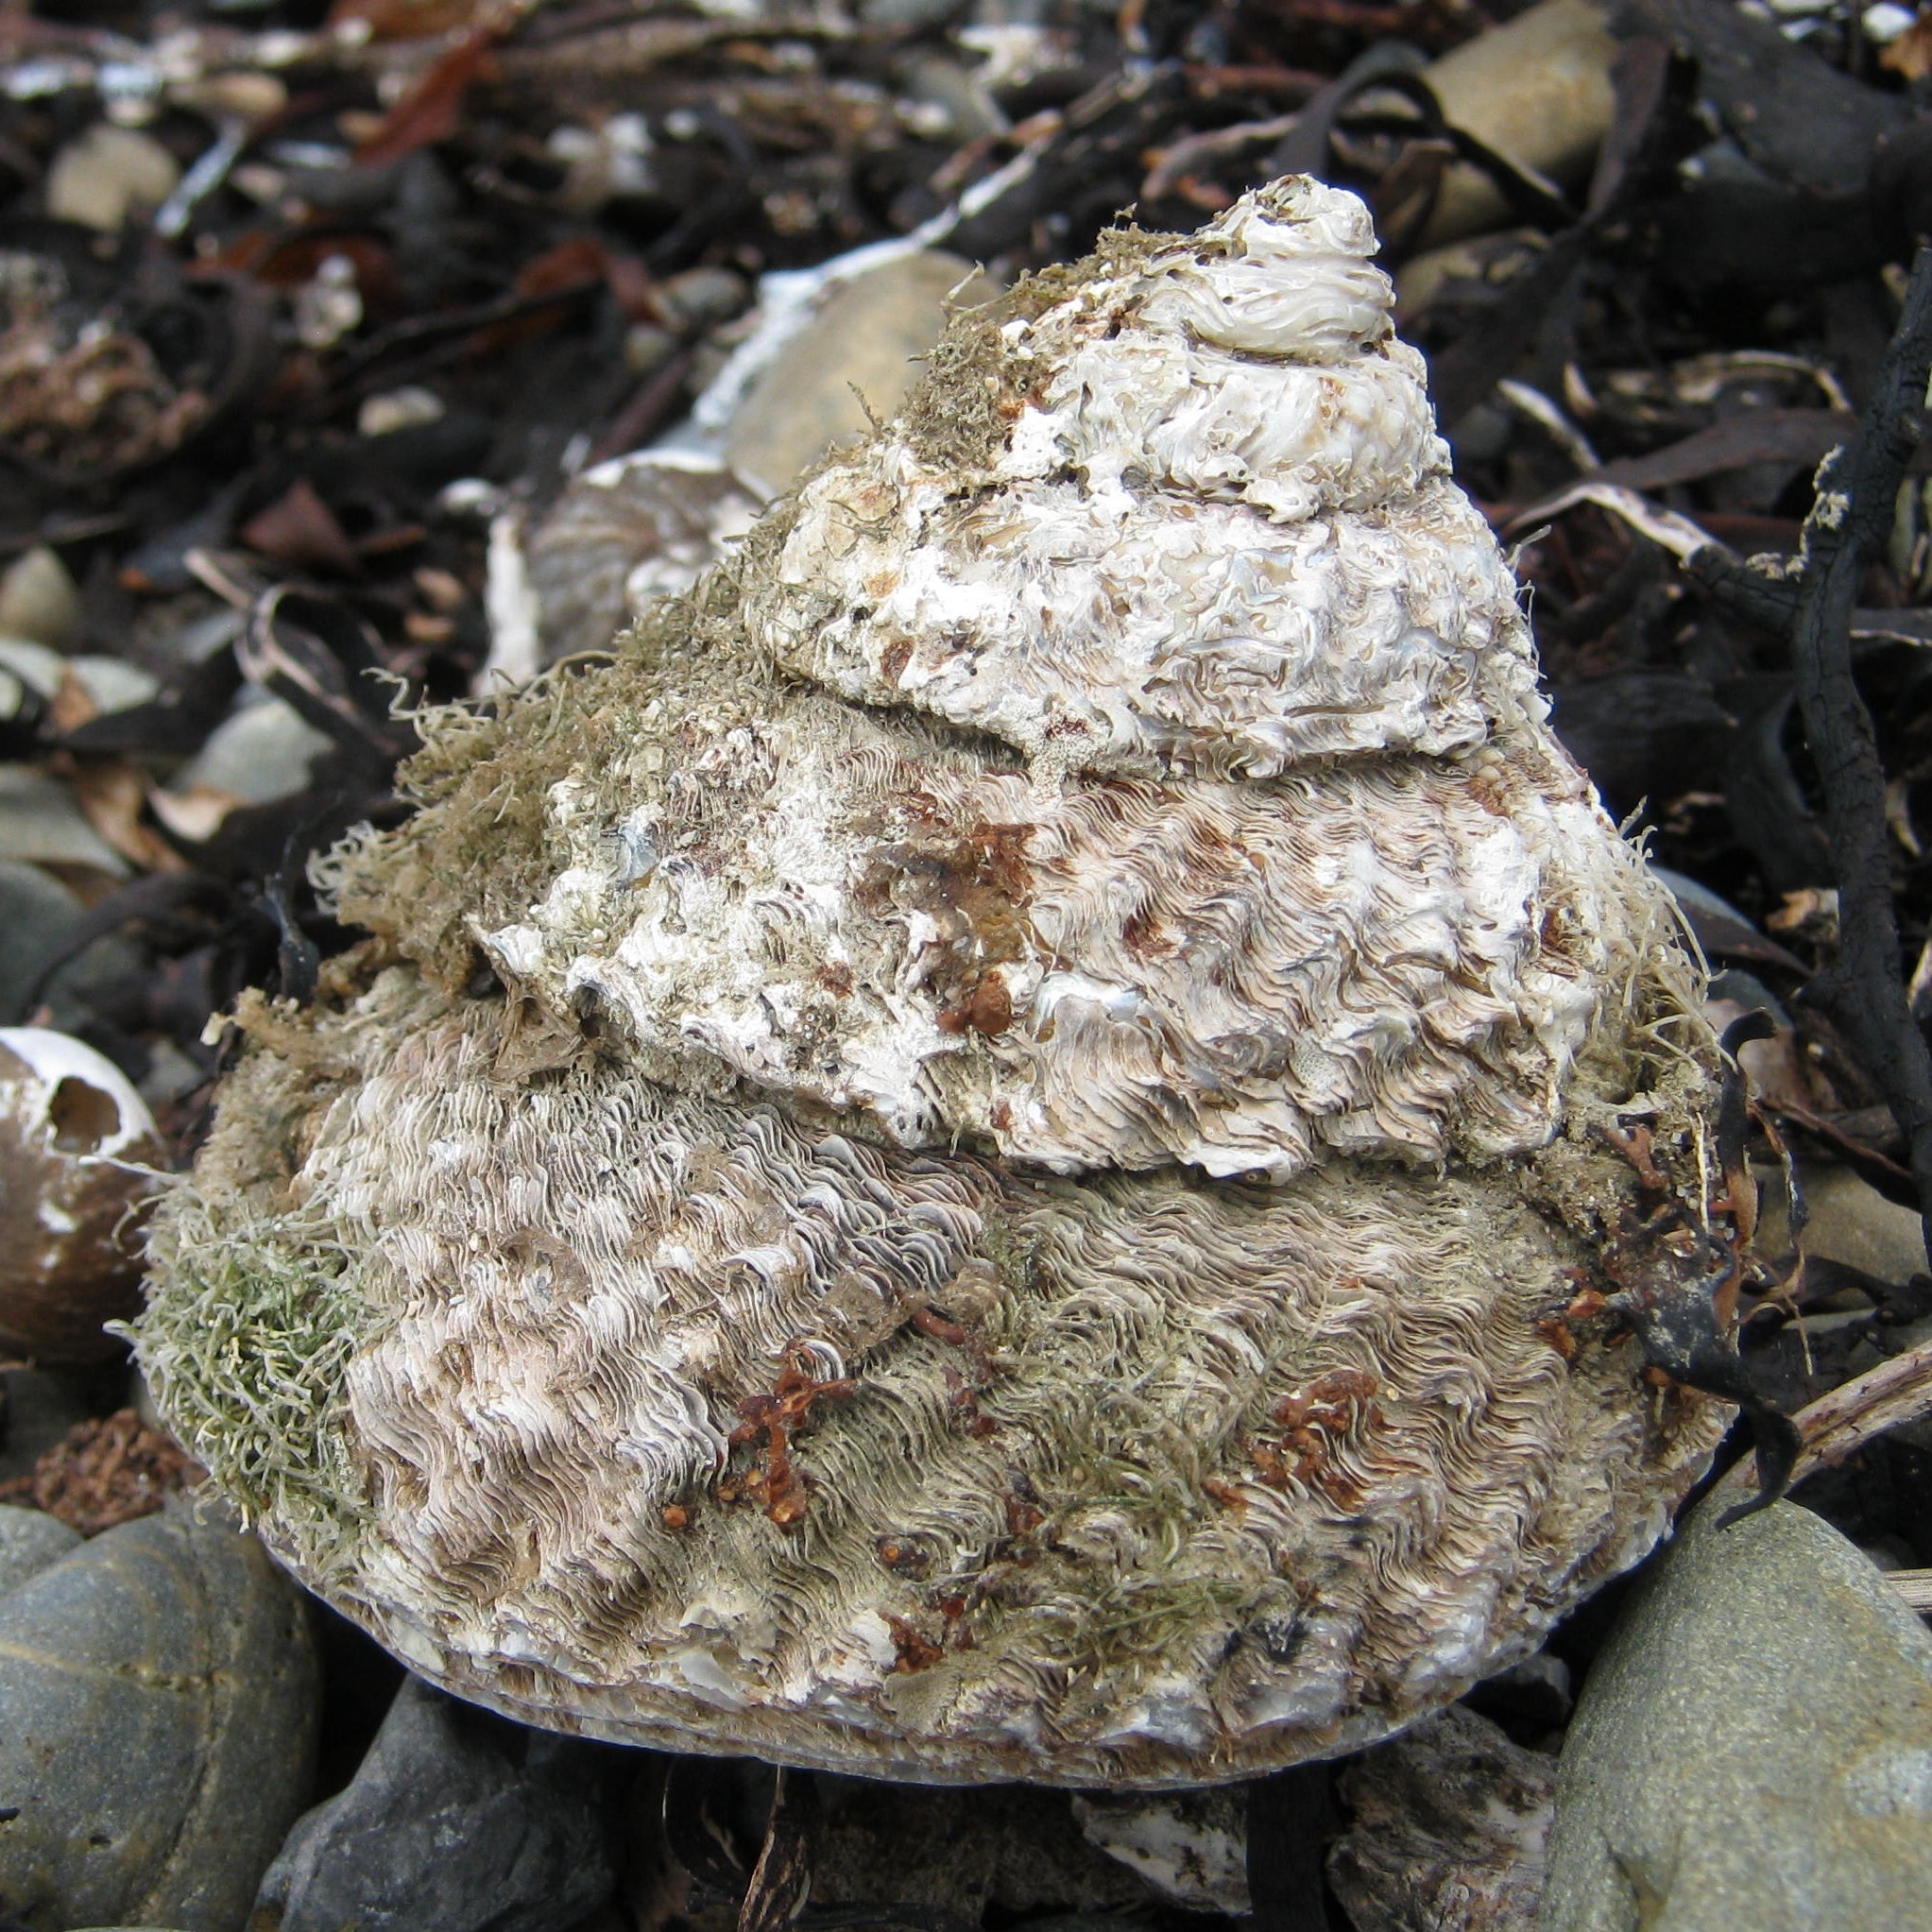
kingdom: Animalia
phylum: Mollusca
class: Gastropoda
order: Trochida
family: Turbinidae
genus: Cookia
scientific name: Cookia sulcata
